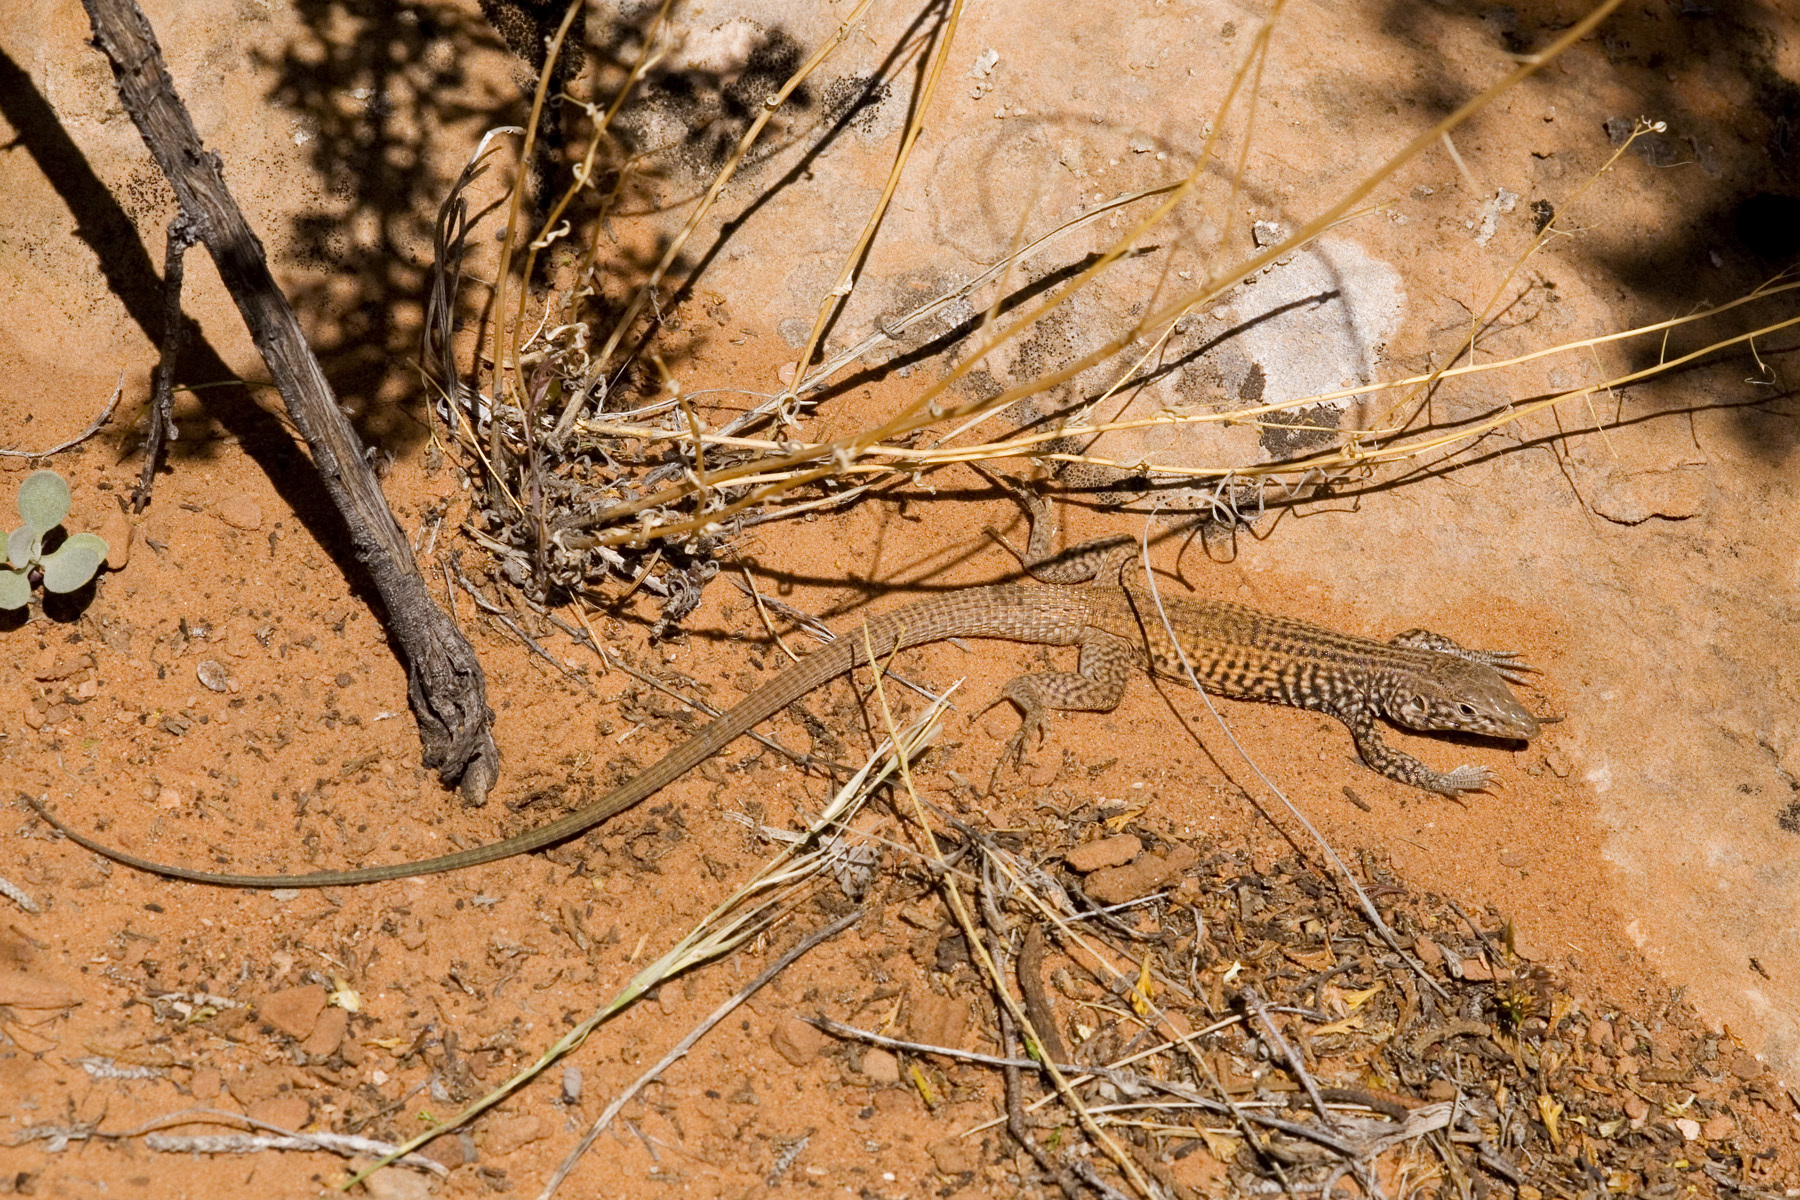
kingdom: Animalia
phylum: Chordata
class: Squamata
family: Teiidae
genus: Aspidoscelis
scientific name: Aspidoscelis tigris
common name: Tiger whiptail
